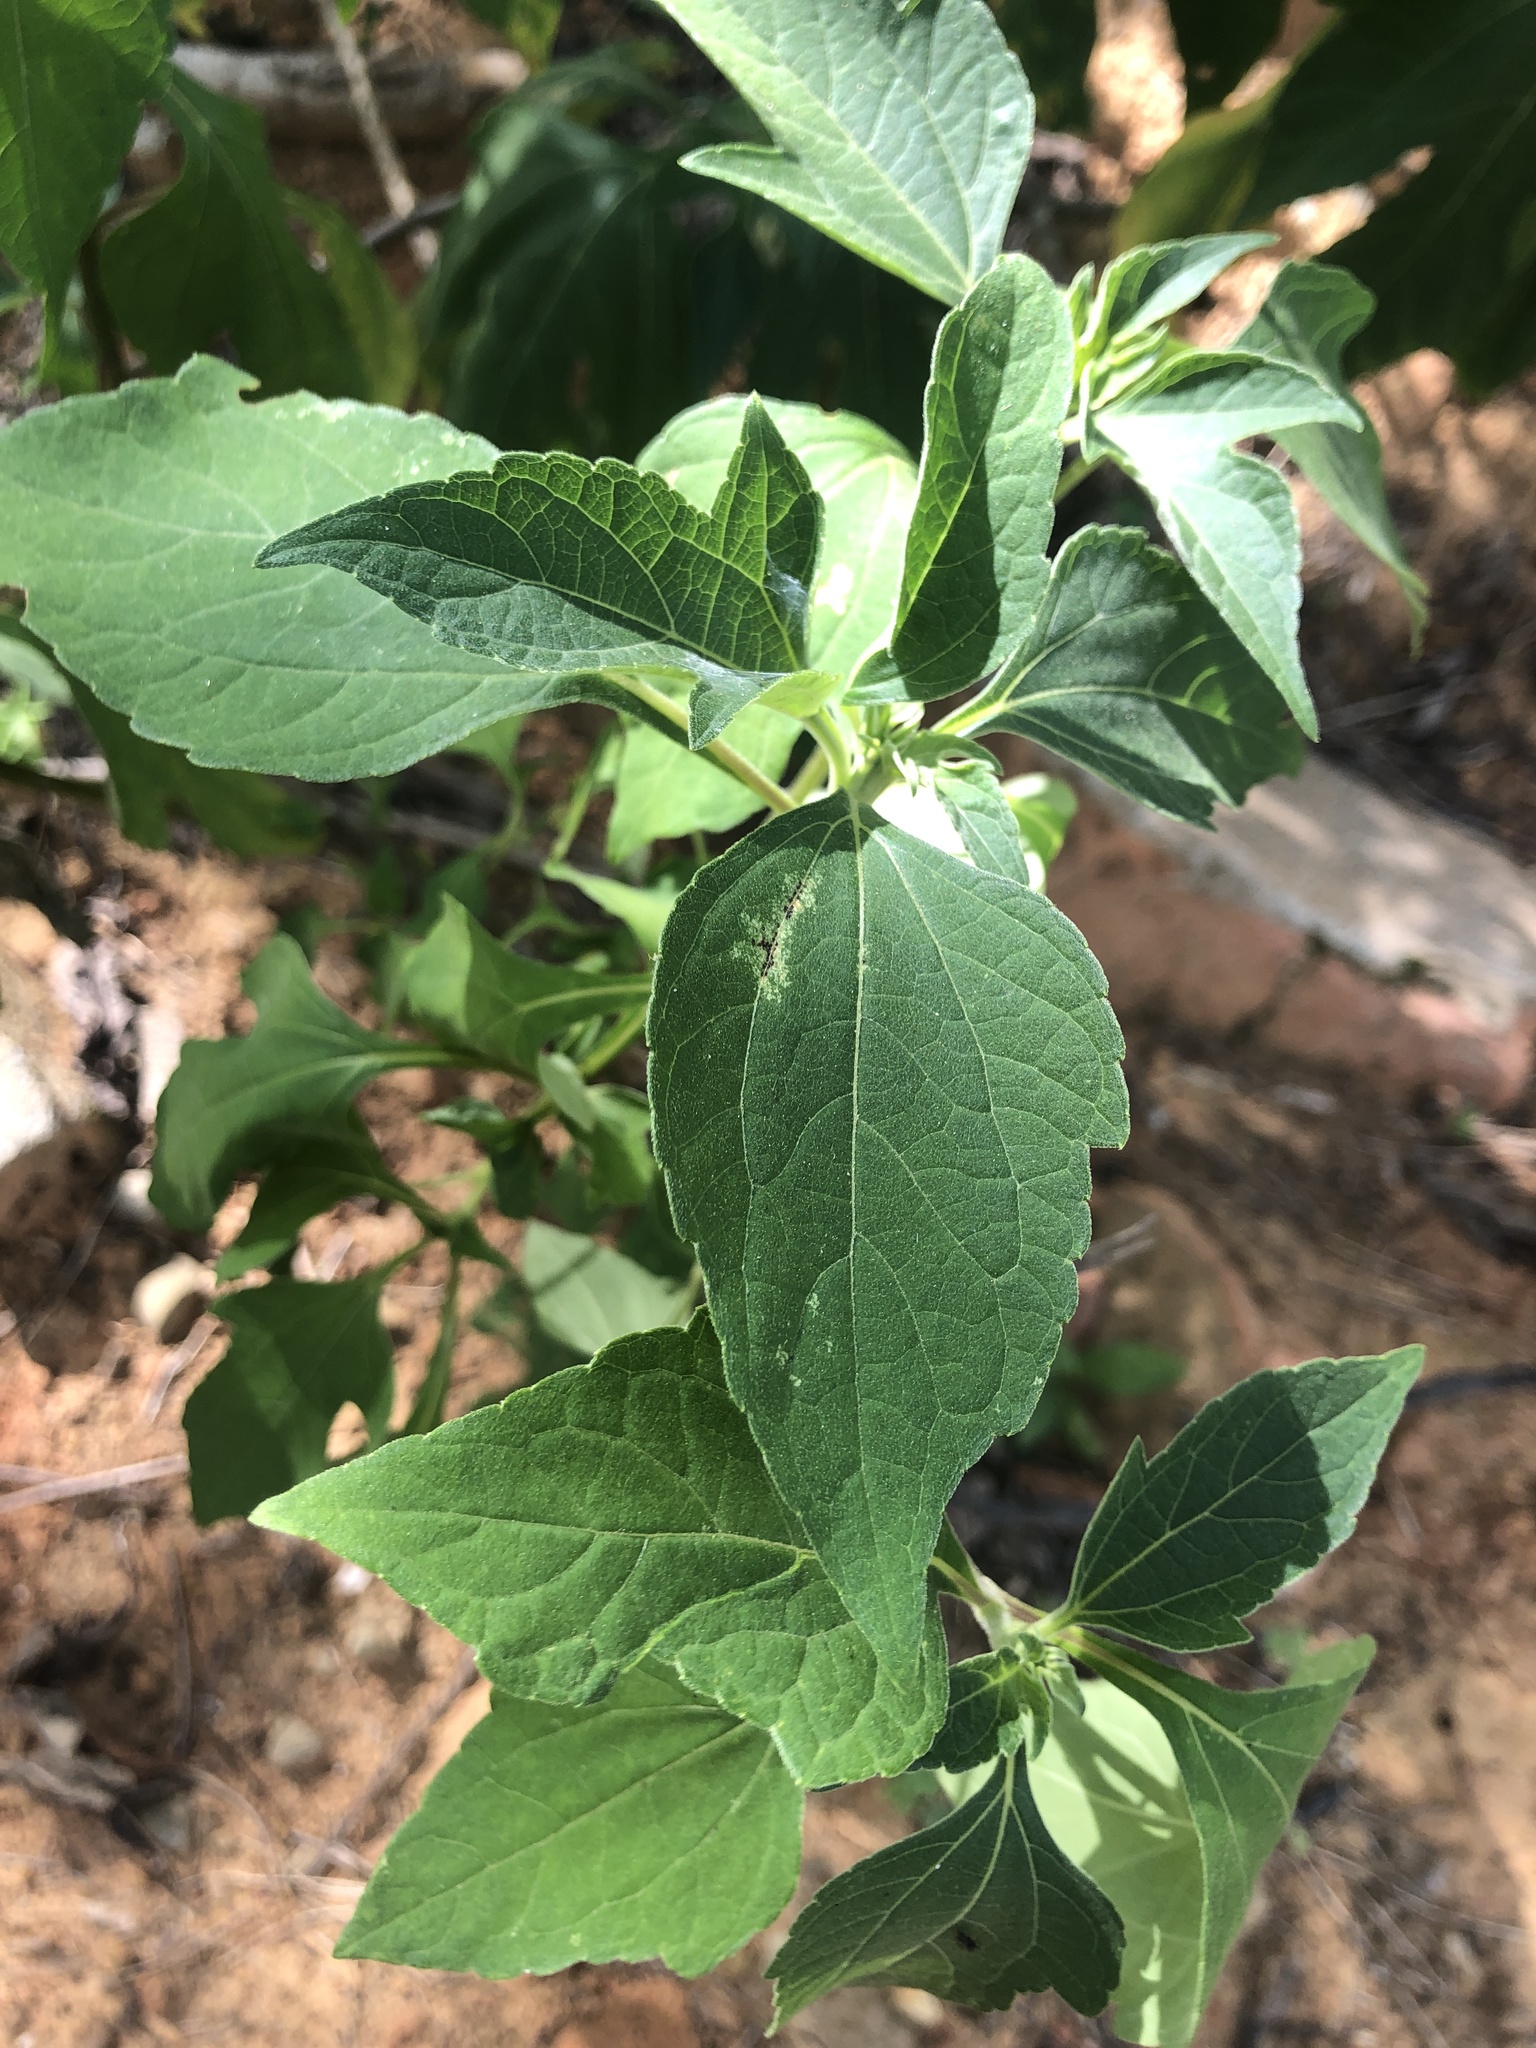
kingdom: Plantae
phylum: Tracheophyta
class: Magnoliopsida
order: Asterales
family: Asteraceae
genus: Chromolaena
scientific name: Chromolaena odorata
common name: Siamweed
